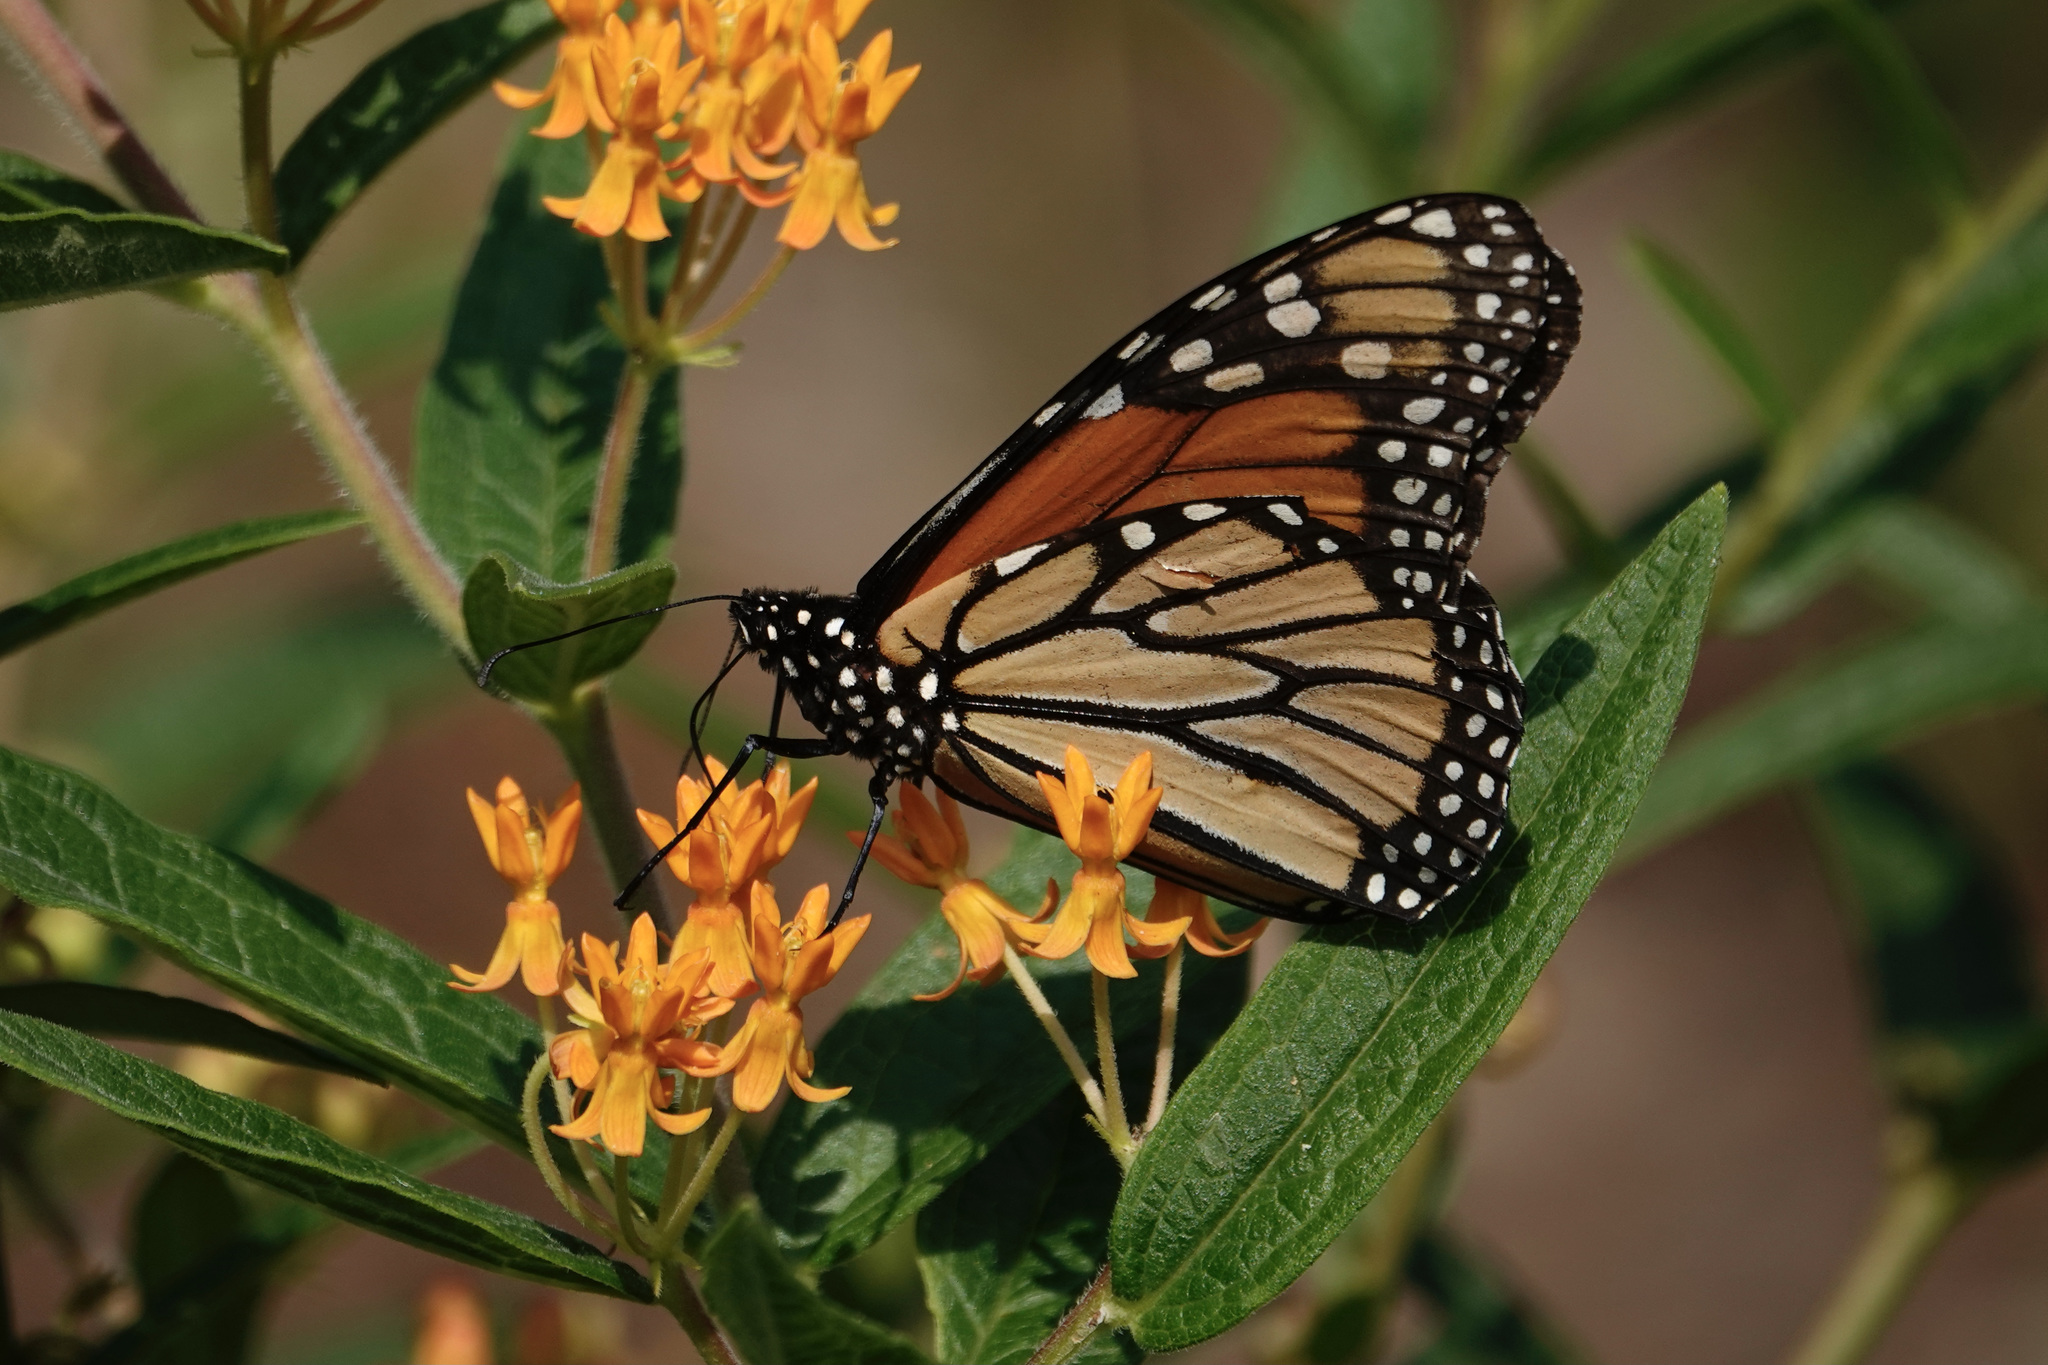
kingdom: Animalia
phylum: Arthropoda
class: Insecta
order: Lepidoptera
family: Nymphalidae
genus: Danaus
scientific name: Danaus plexippus
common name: Monarch
